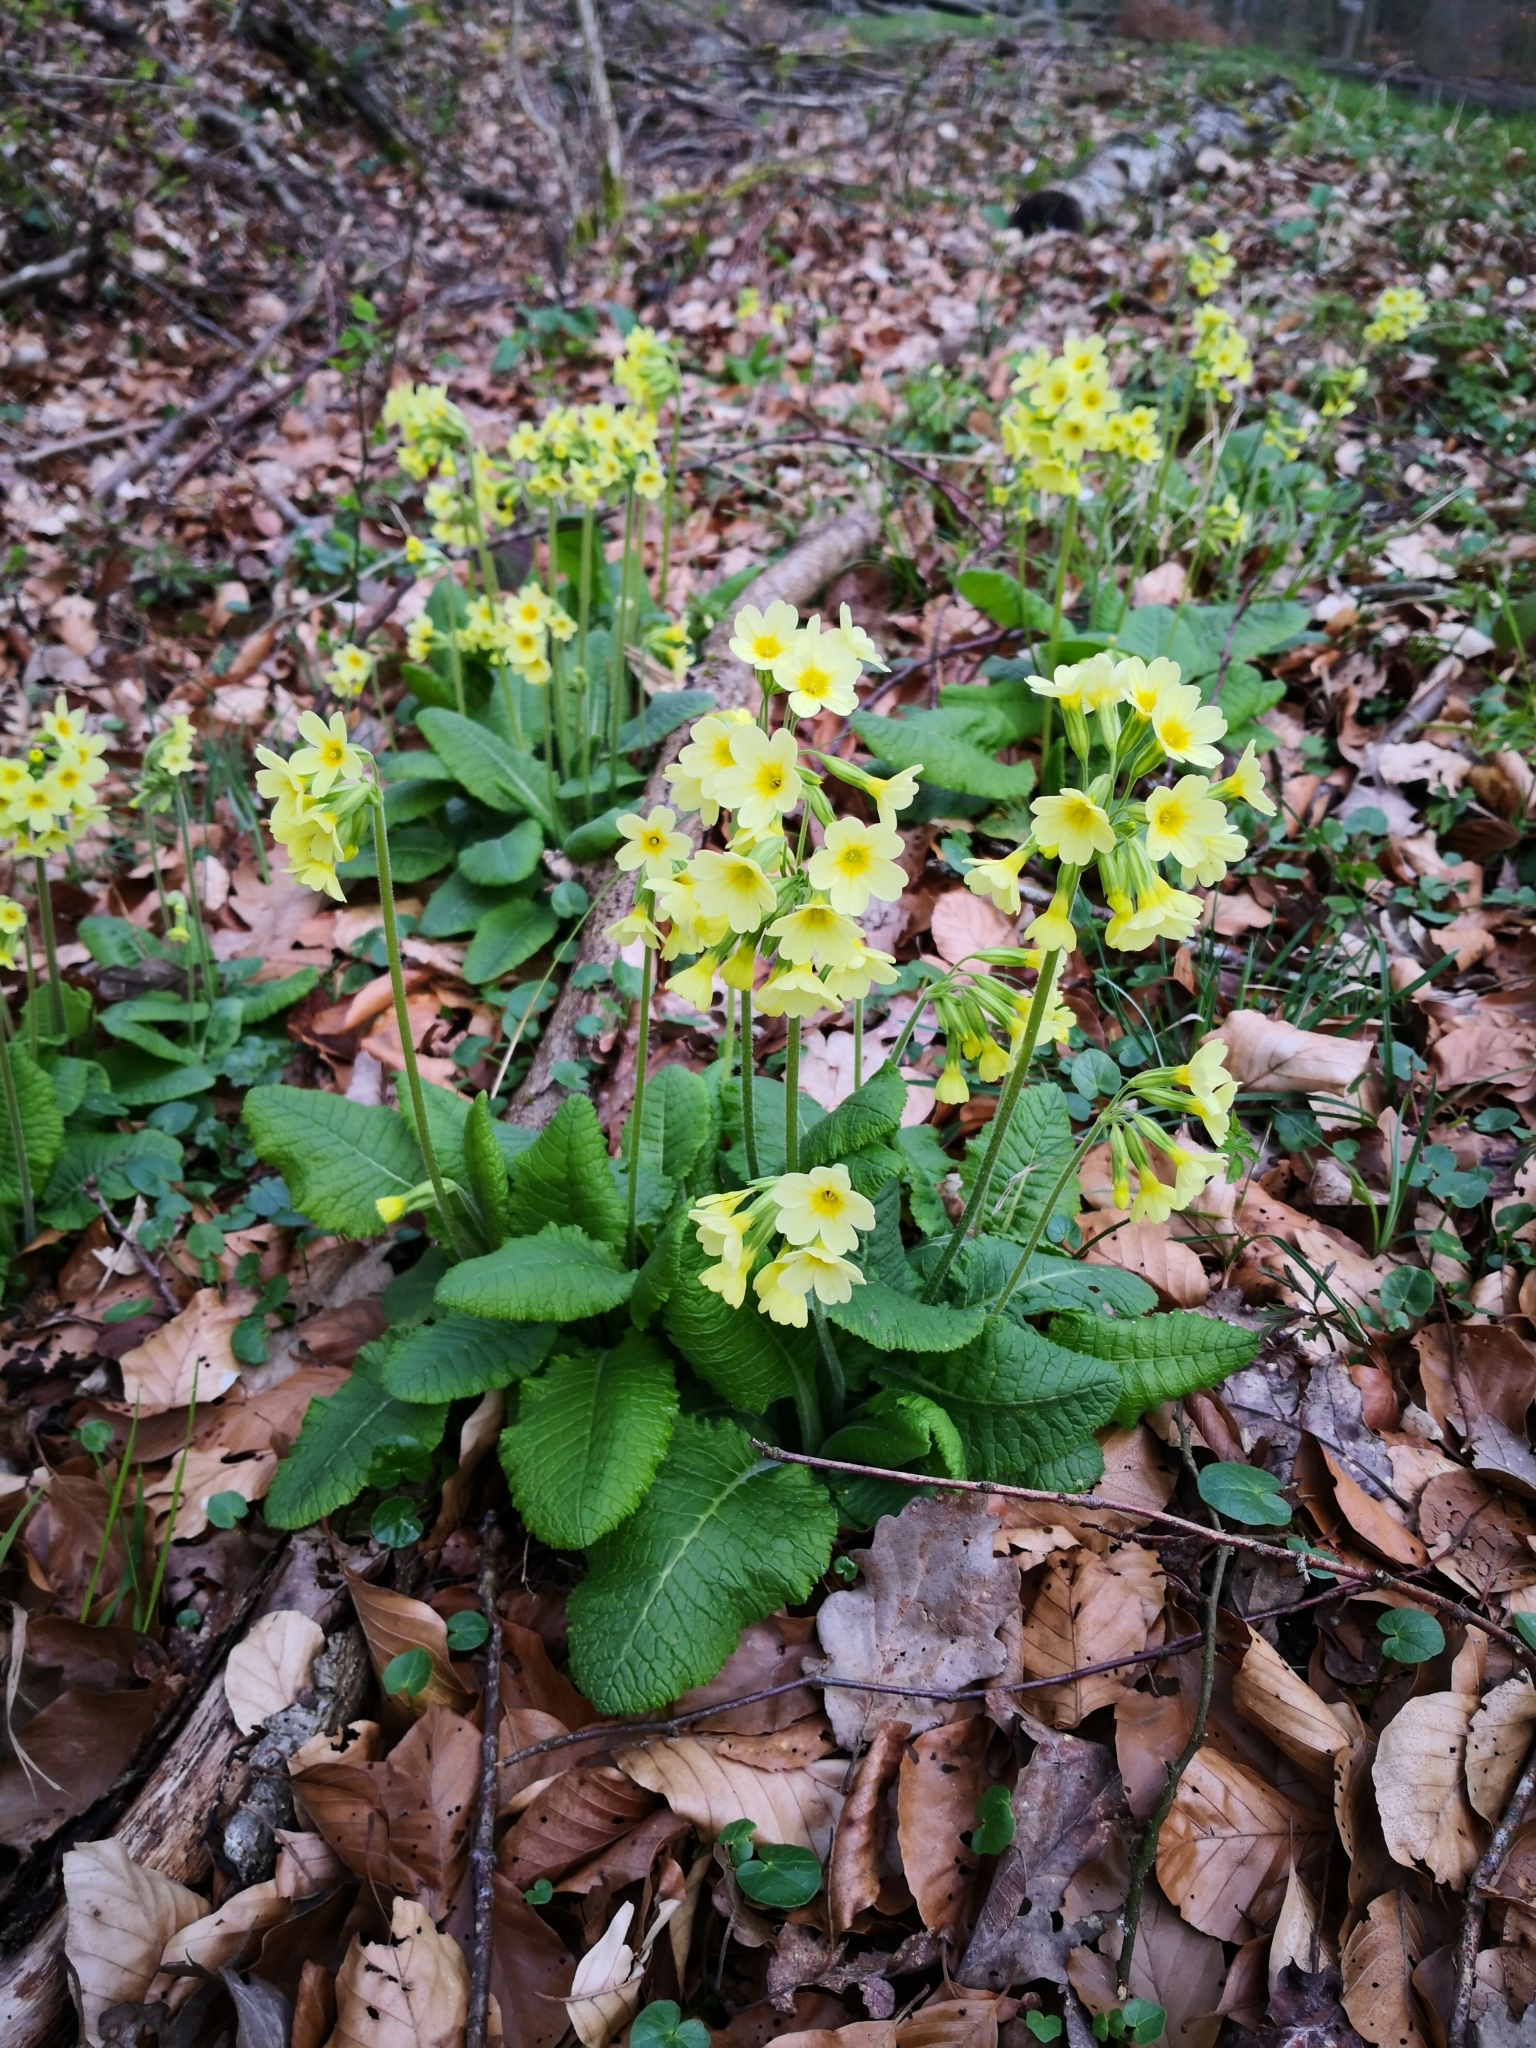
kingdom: Plantae
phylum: Tracheophyta
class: Magnoliopsida
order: Ericales
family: Primulaceae
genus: Primula
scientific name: Primula elatior
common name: Oxlip
